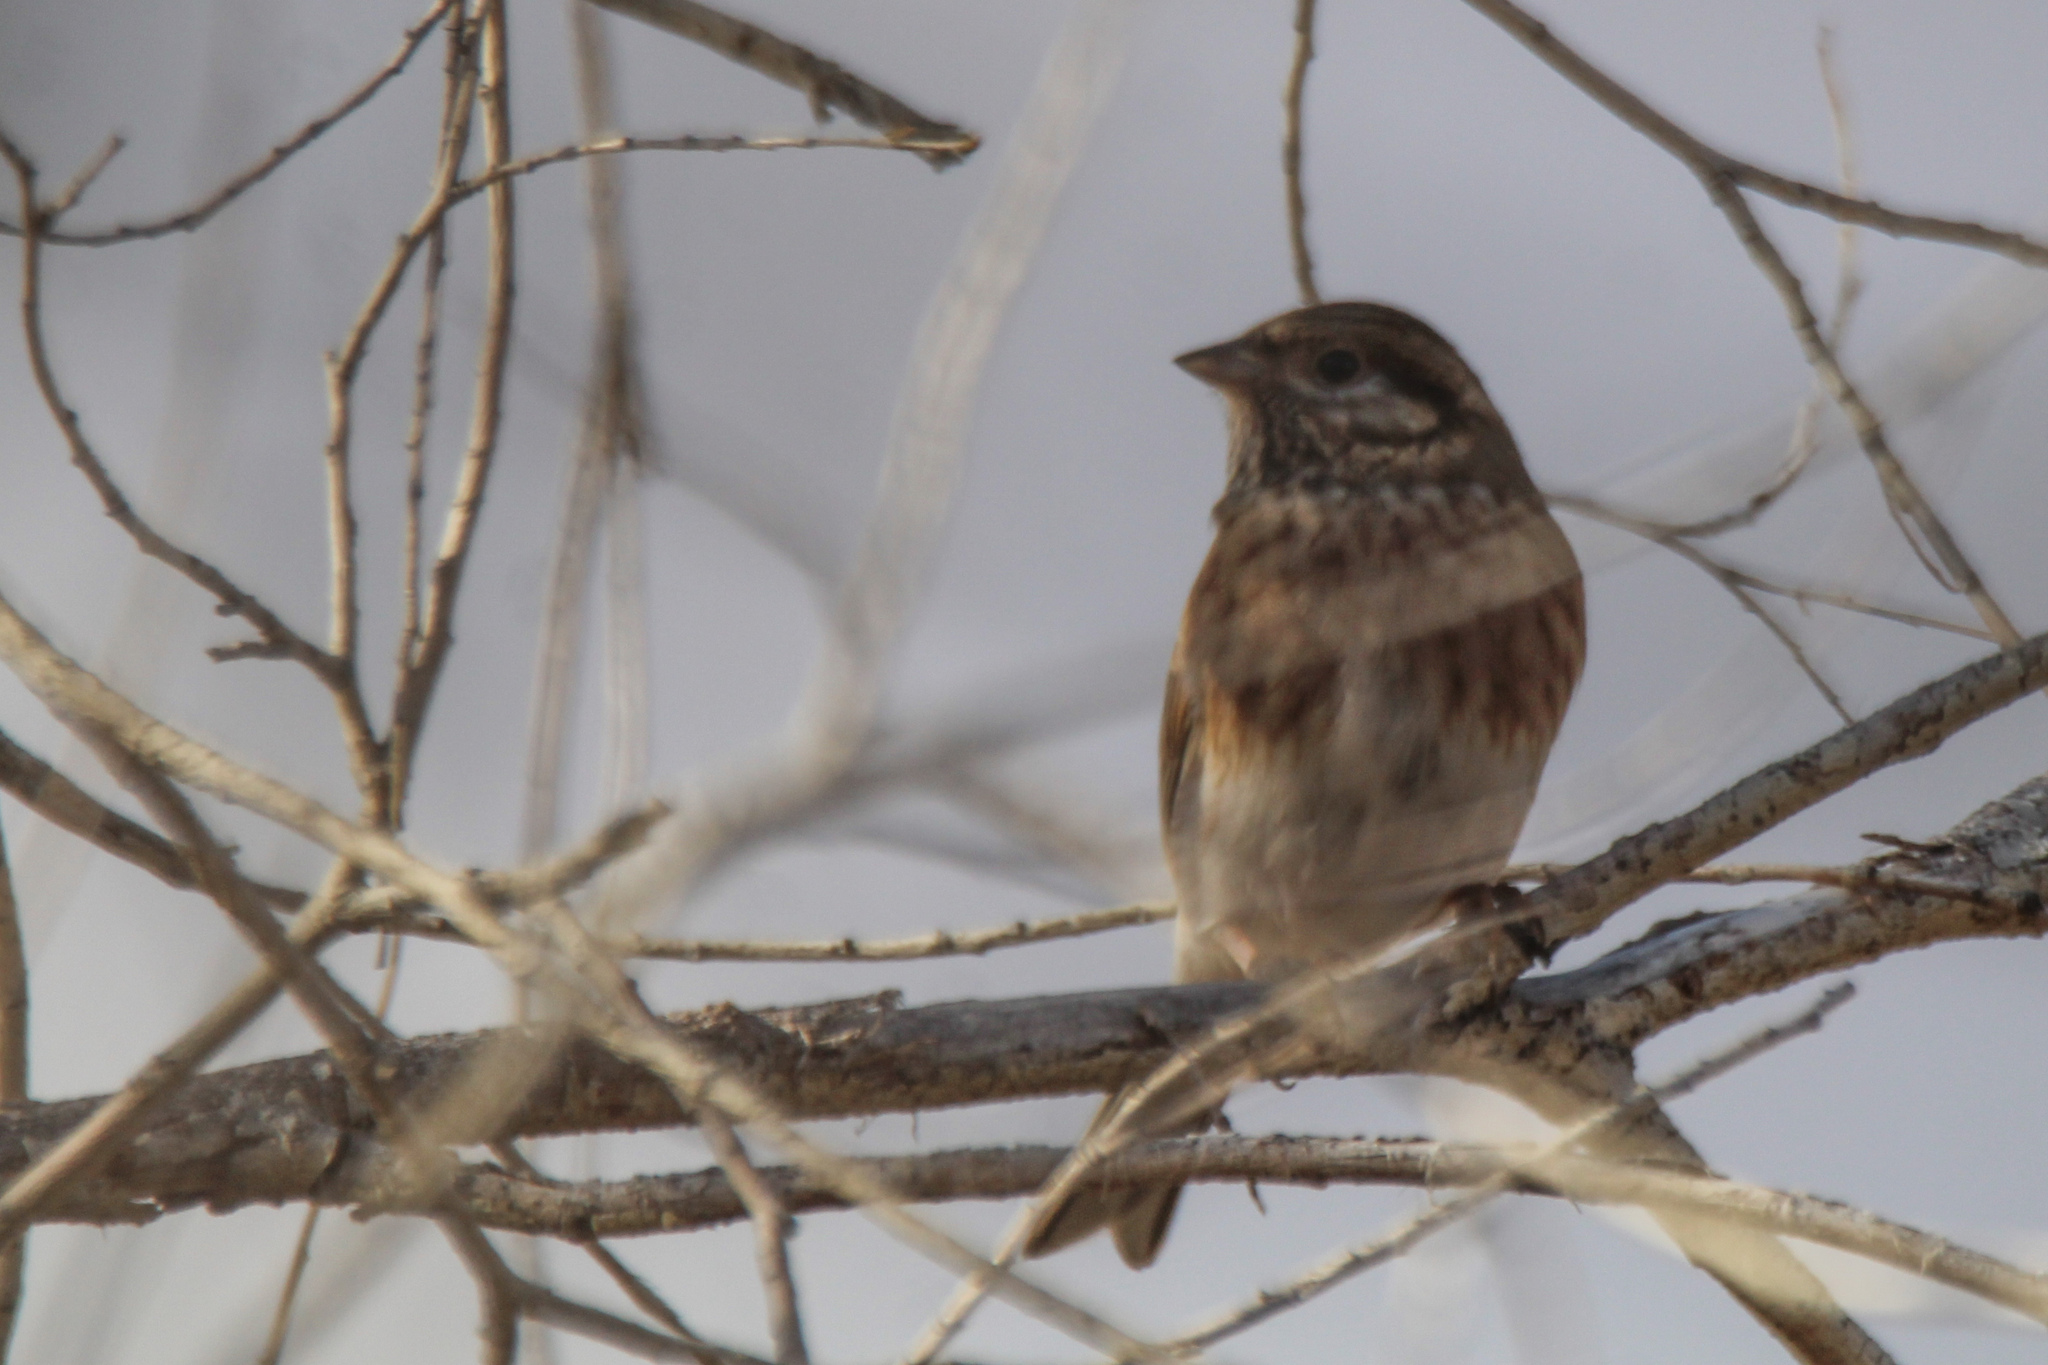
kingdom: Animalia
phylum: Chordata
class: Aves
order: Passeriformes
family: Emberizidae
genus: Emberiza
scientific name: Emberiza leucocephalos
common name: Pine bunting
